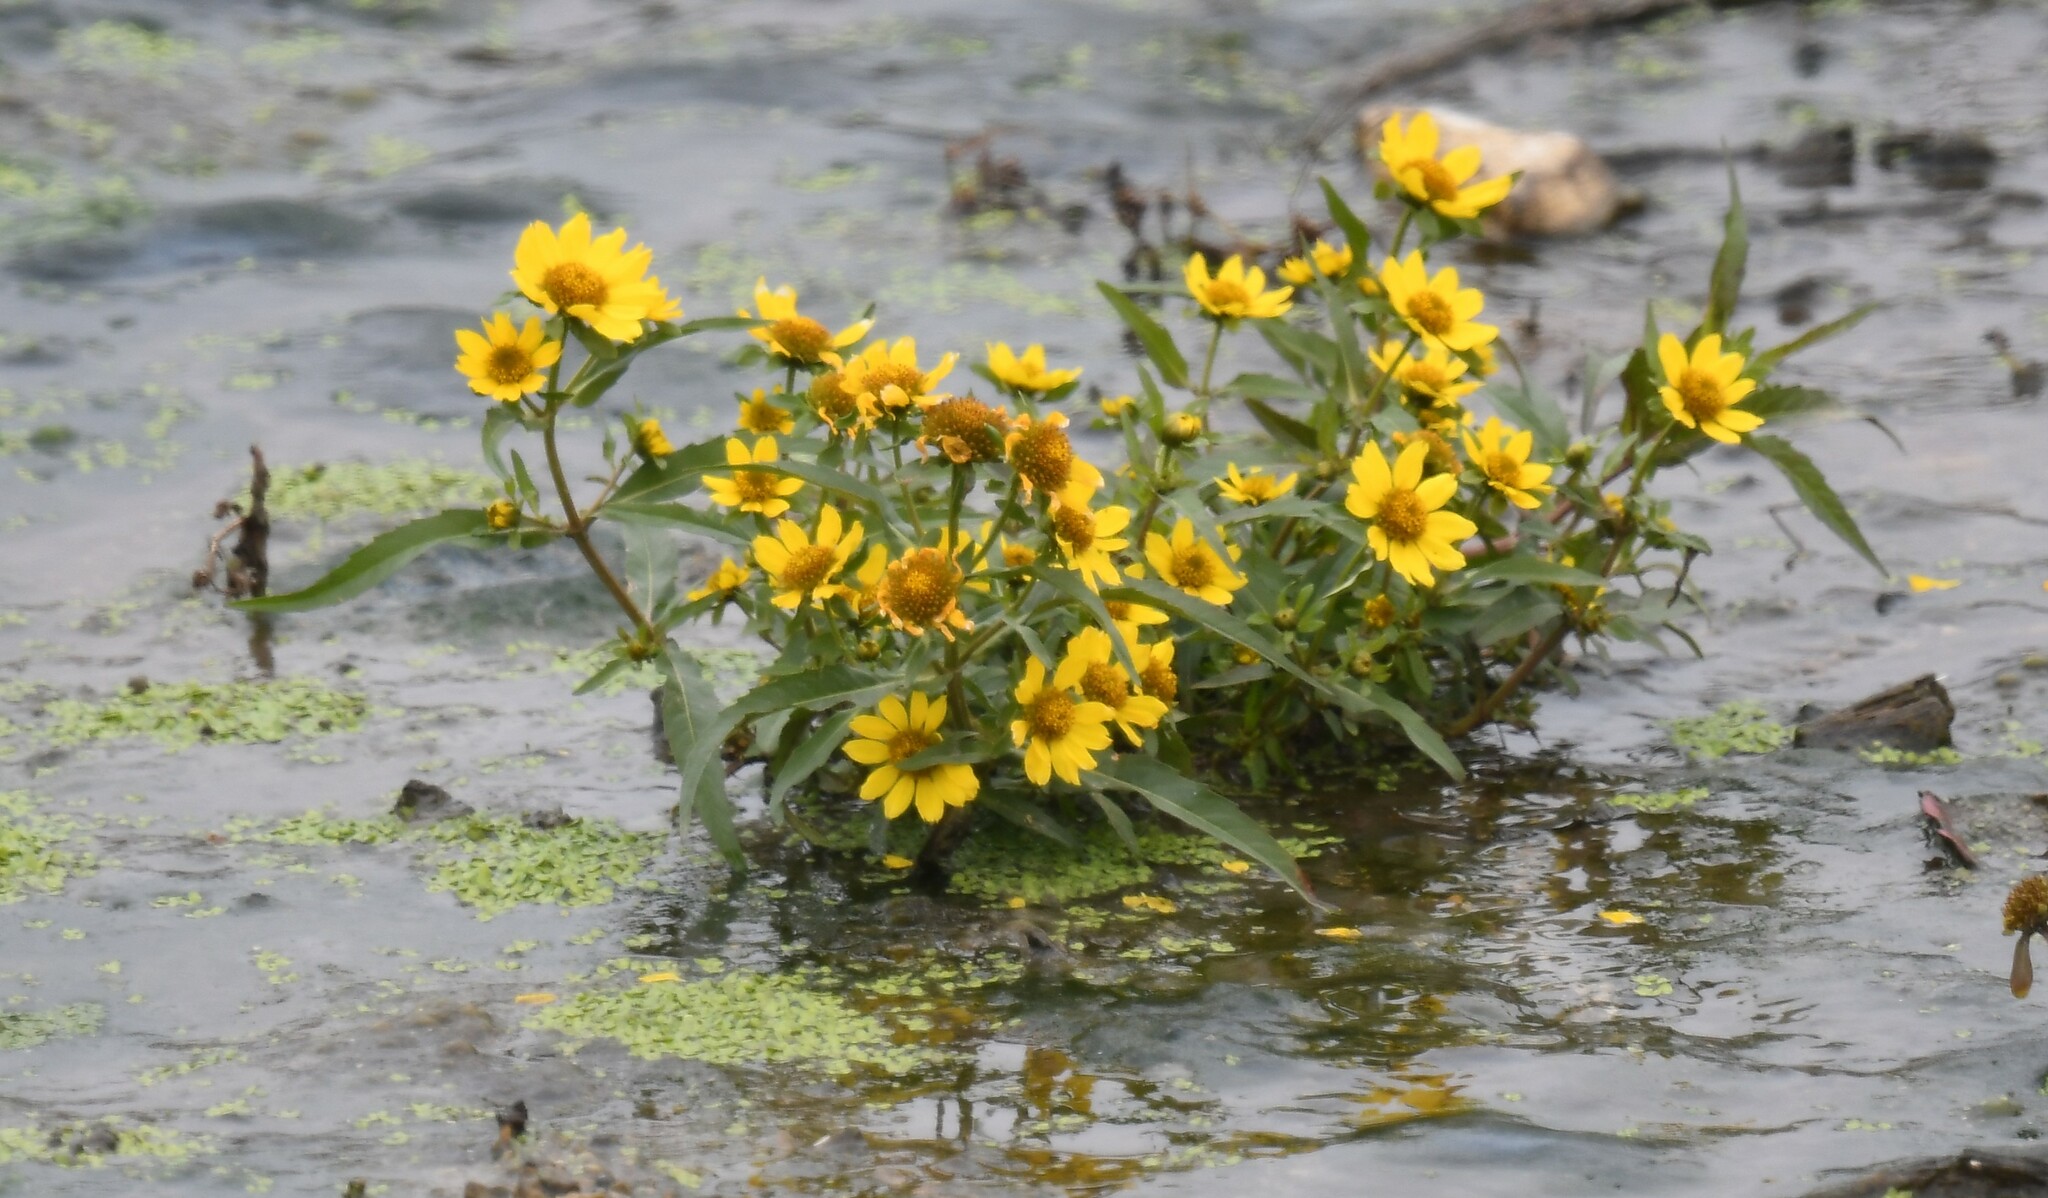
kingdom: Plantae
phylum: Tracheophyta
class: Magnoliopsida
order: Asterales
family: Asteraceae
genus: Bidens
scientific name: Bidens cernua
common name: Nodding bur-marigold
